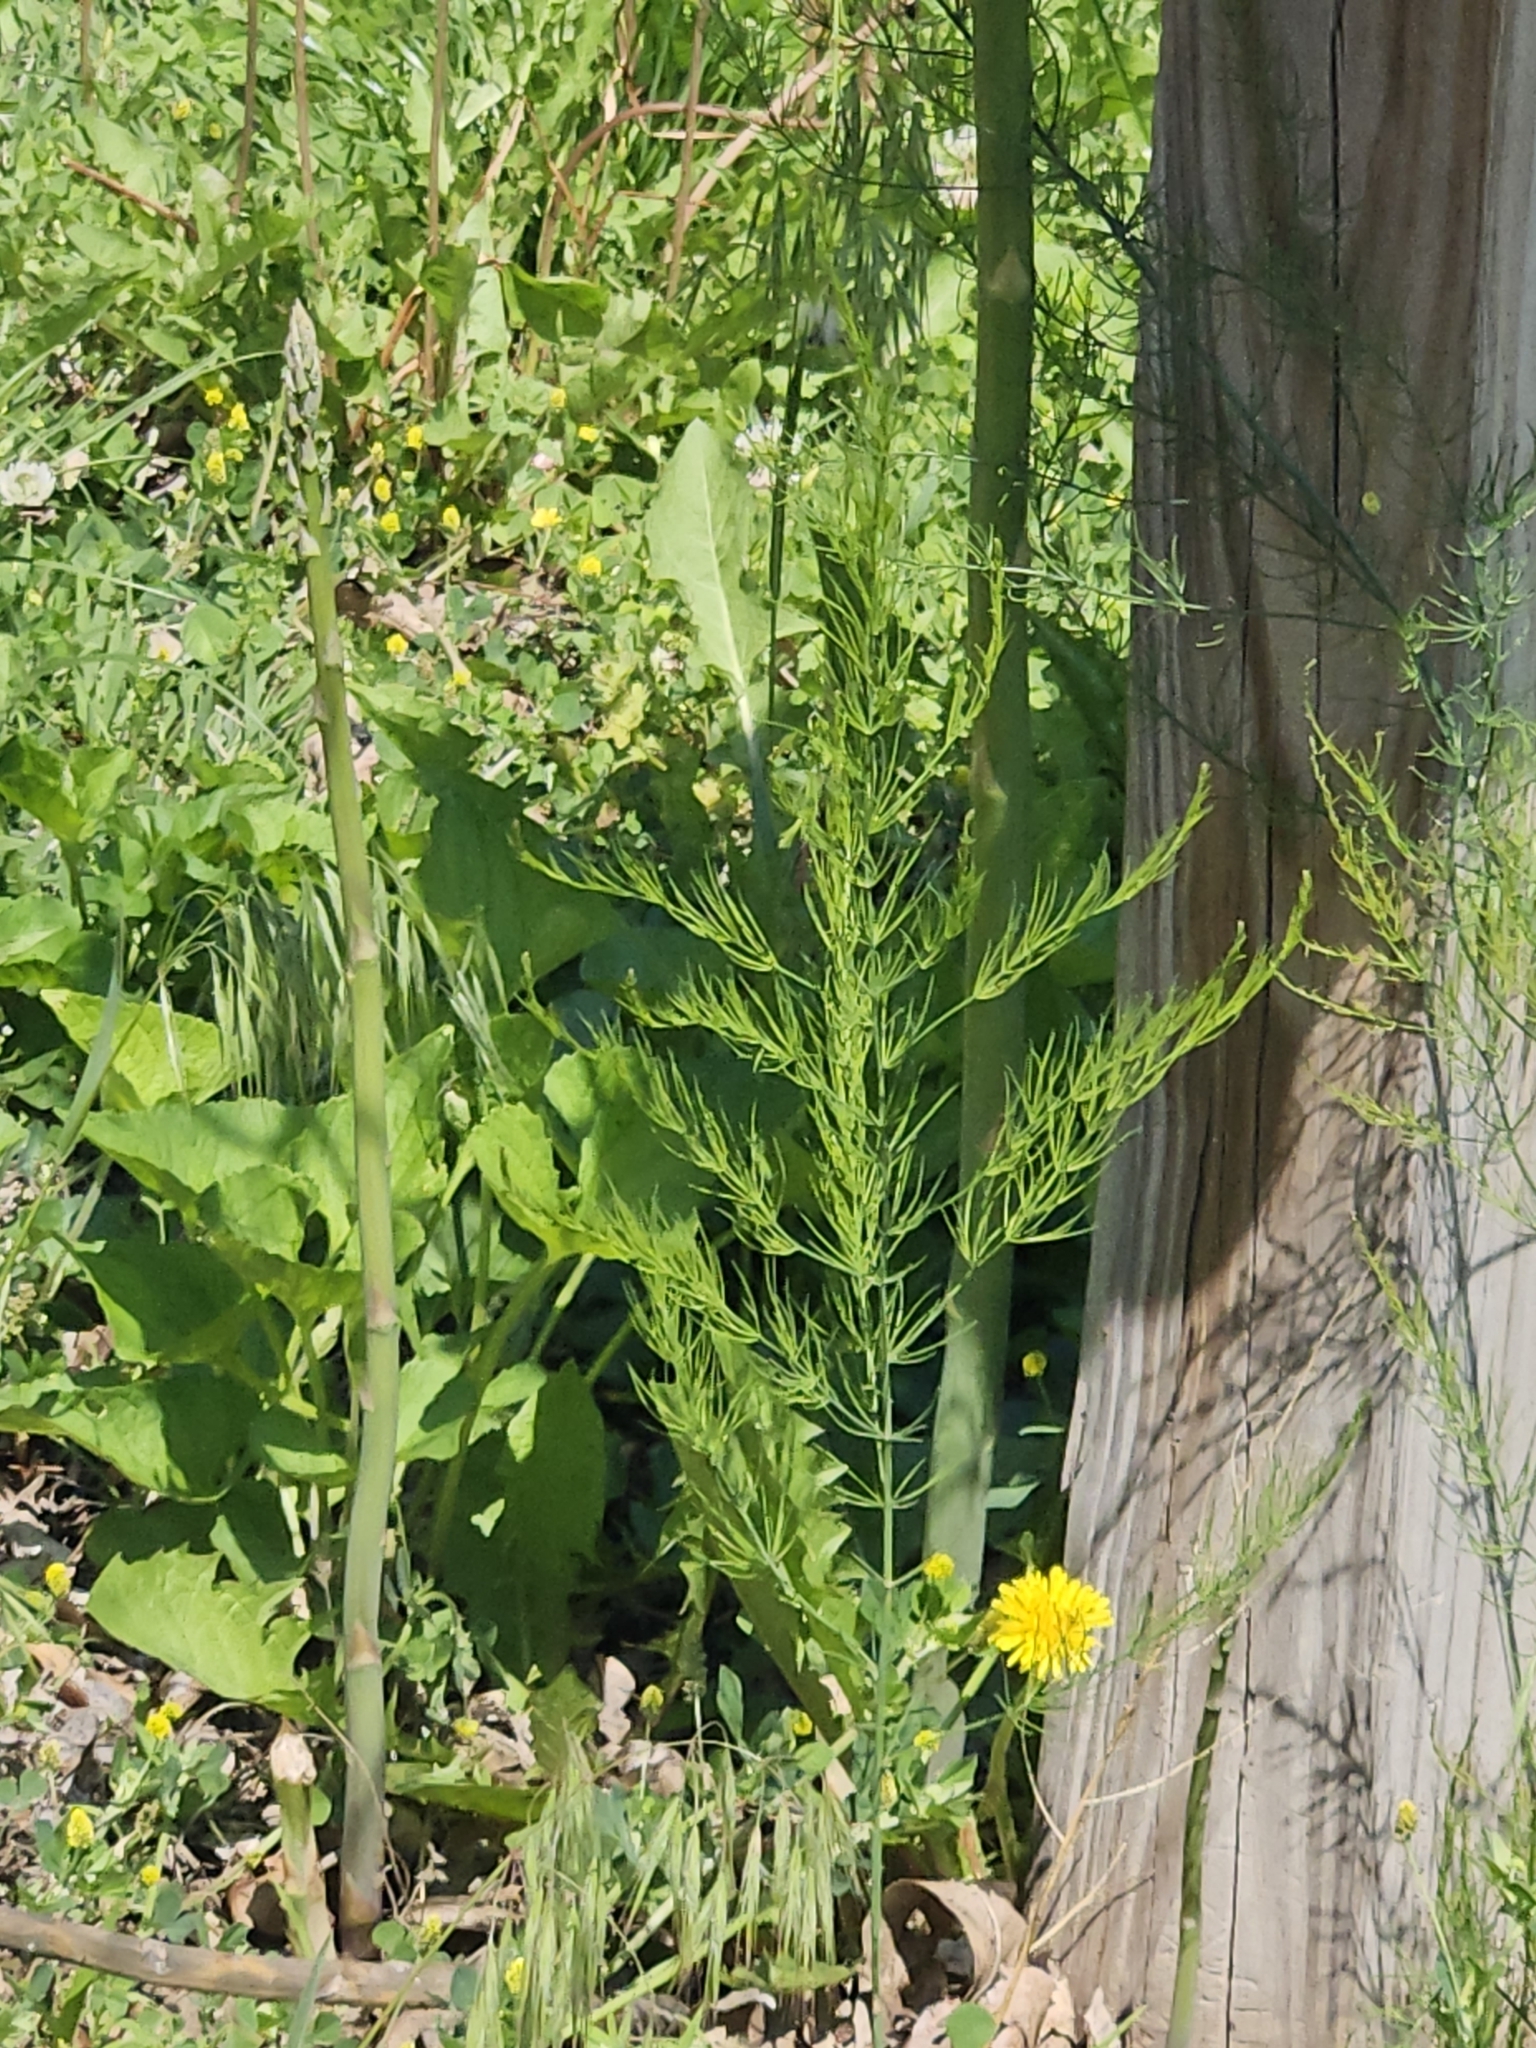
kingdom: Plantae
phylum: Tracheophyta
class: Liliopsida
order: Asparagales
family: Asparagaceae
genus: Asparagus
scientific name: Asparagus officinalis
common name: Garden asparagus
